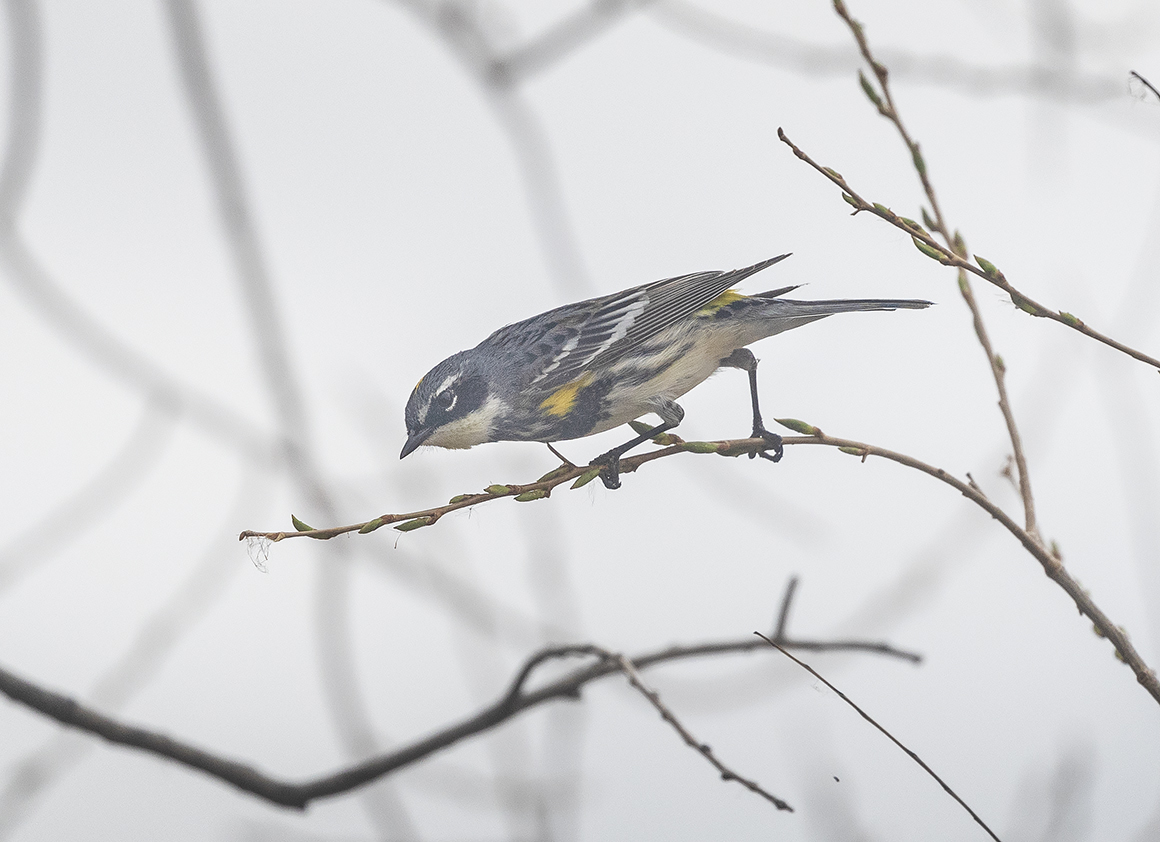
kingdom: Animalia
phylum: Chordata
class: Aves
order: Passeriformes
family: Parulidae
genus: Setophaga
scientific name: Setophaga coronata
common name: Myrtle warbler
